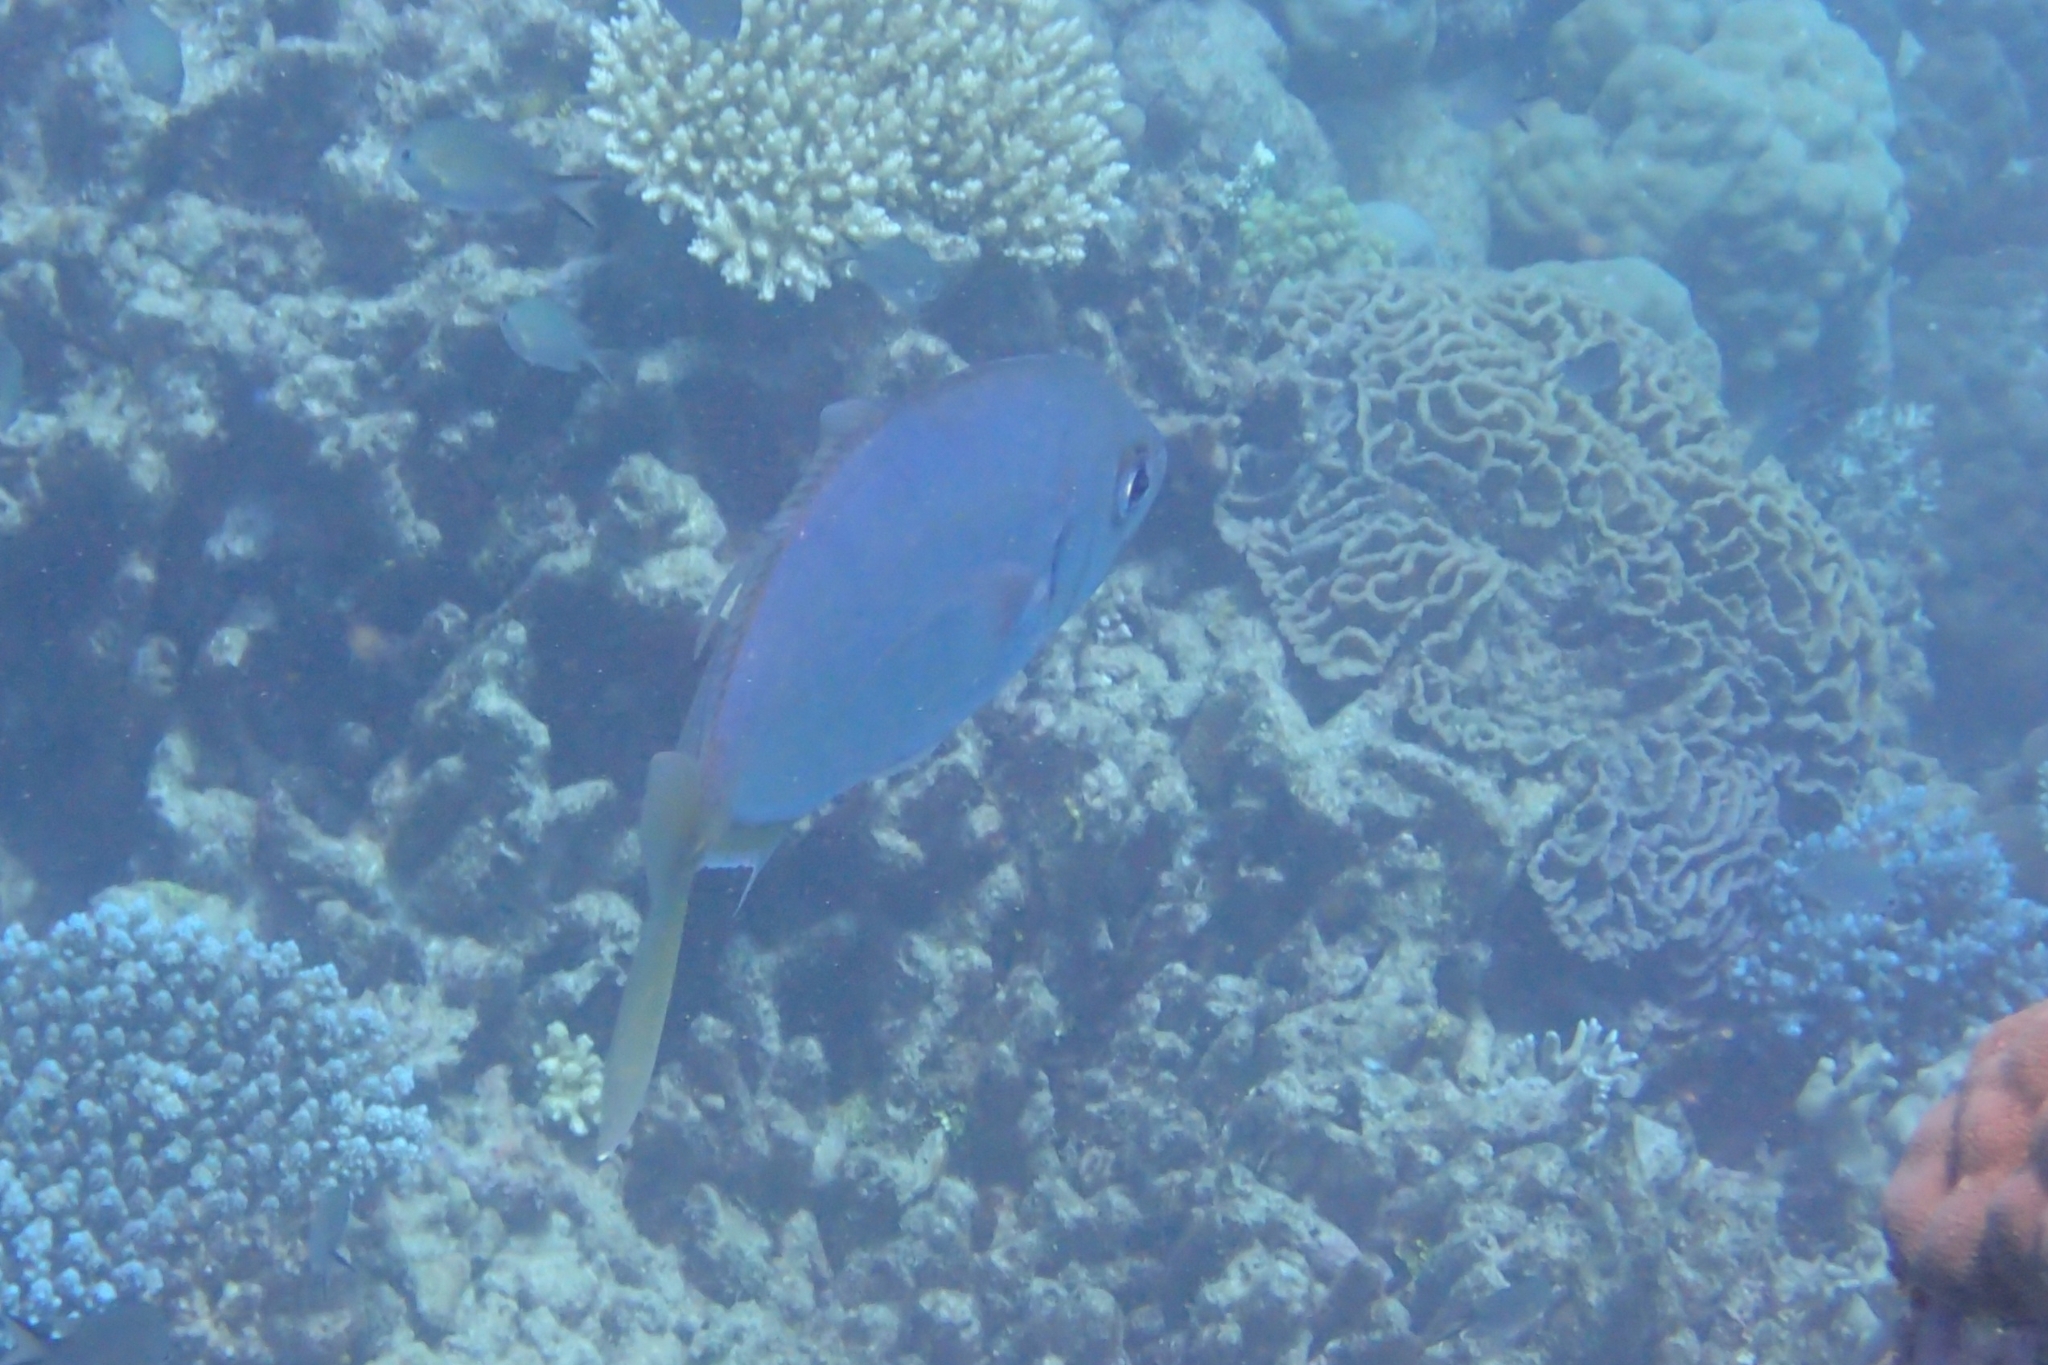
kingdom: Animalia
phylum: Chordata
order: Perciformes
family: Carangidae
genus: Craterognathus
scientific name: Craterognathus plagiotaenia
